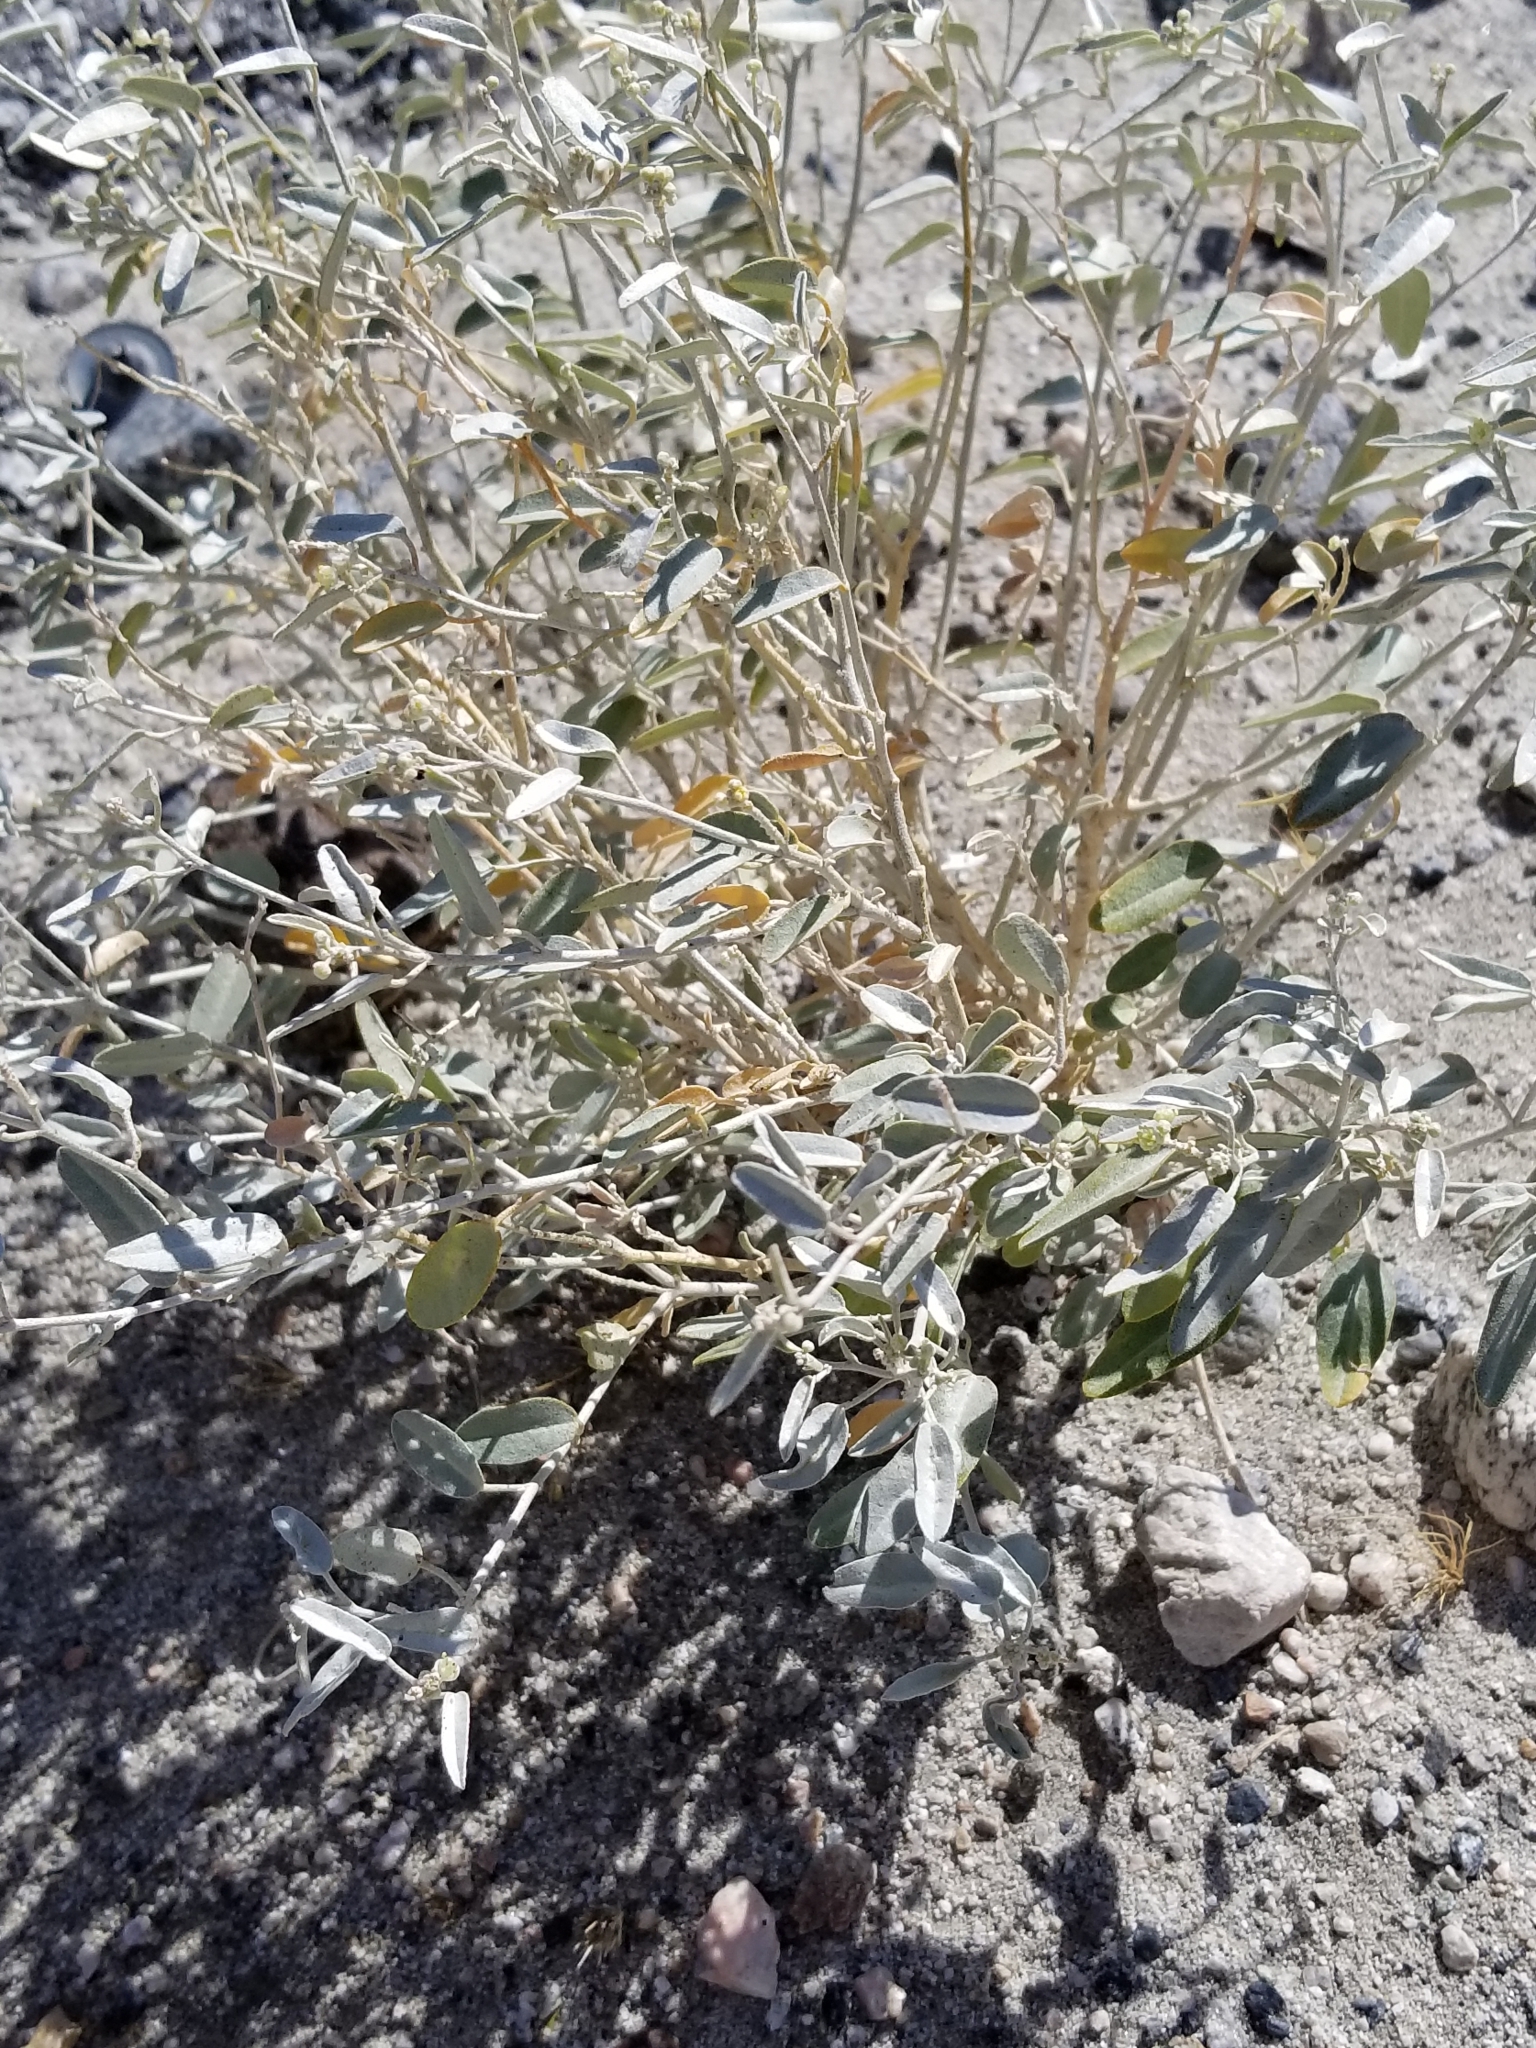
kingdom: Plantae
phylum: Tracheophyta
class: Magnoliopsida
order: Malpighiales
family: Euphorbiaceae
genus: Croton
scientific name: Croton californicus
